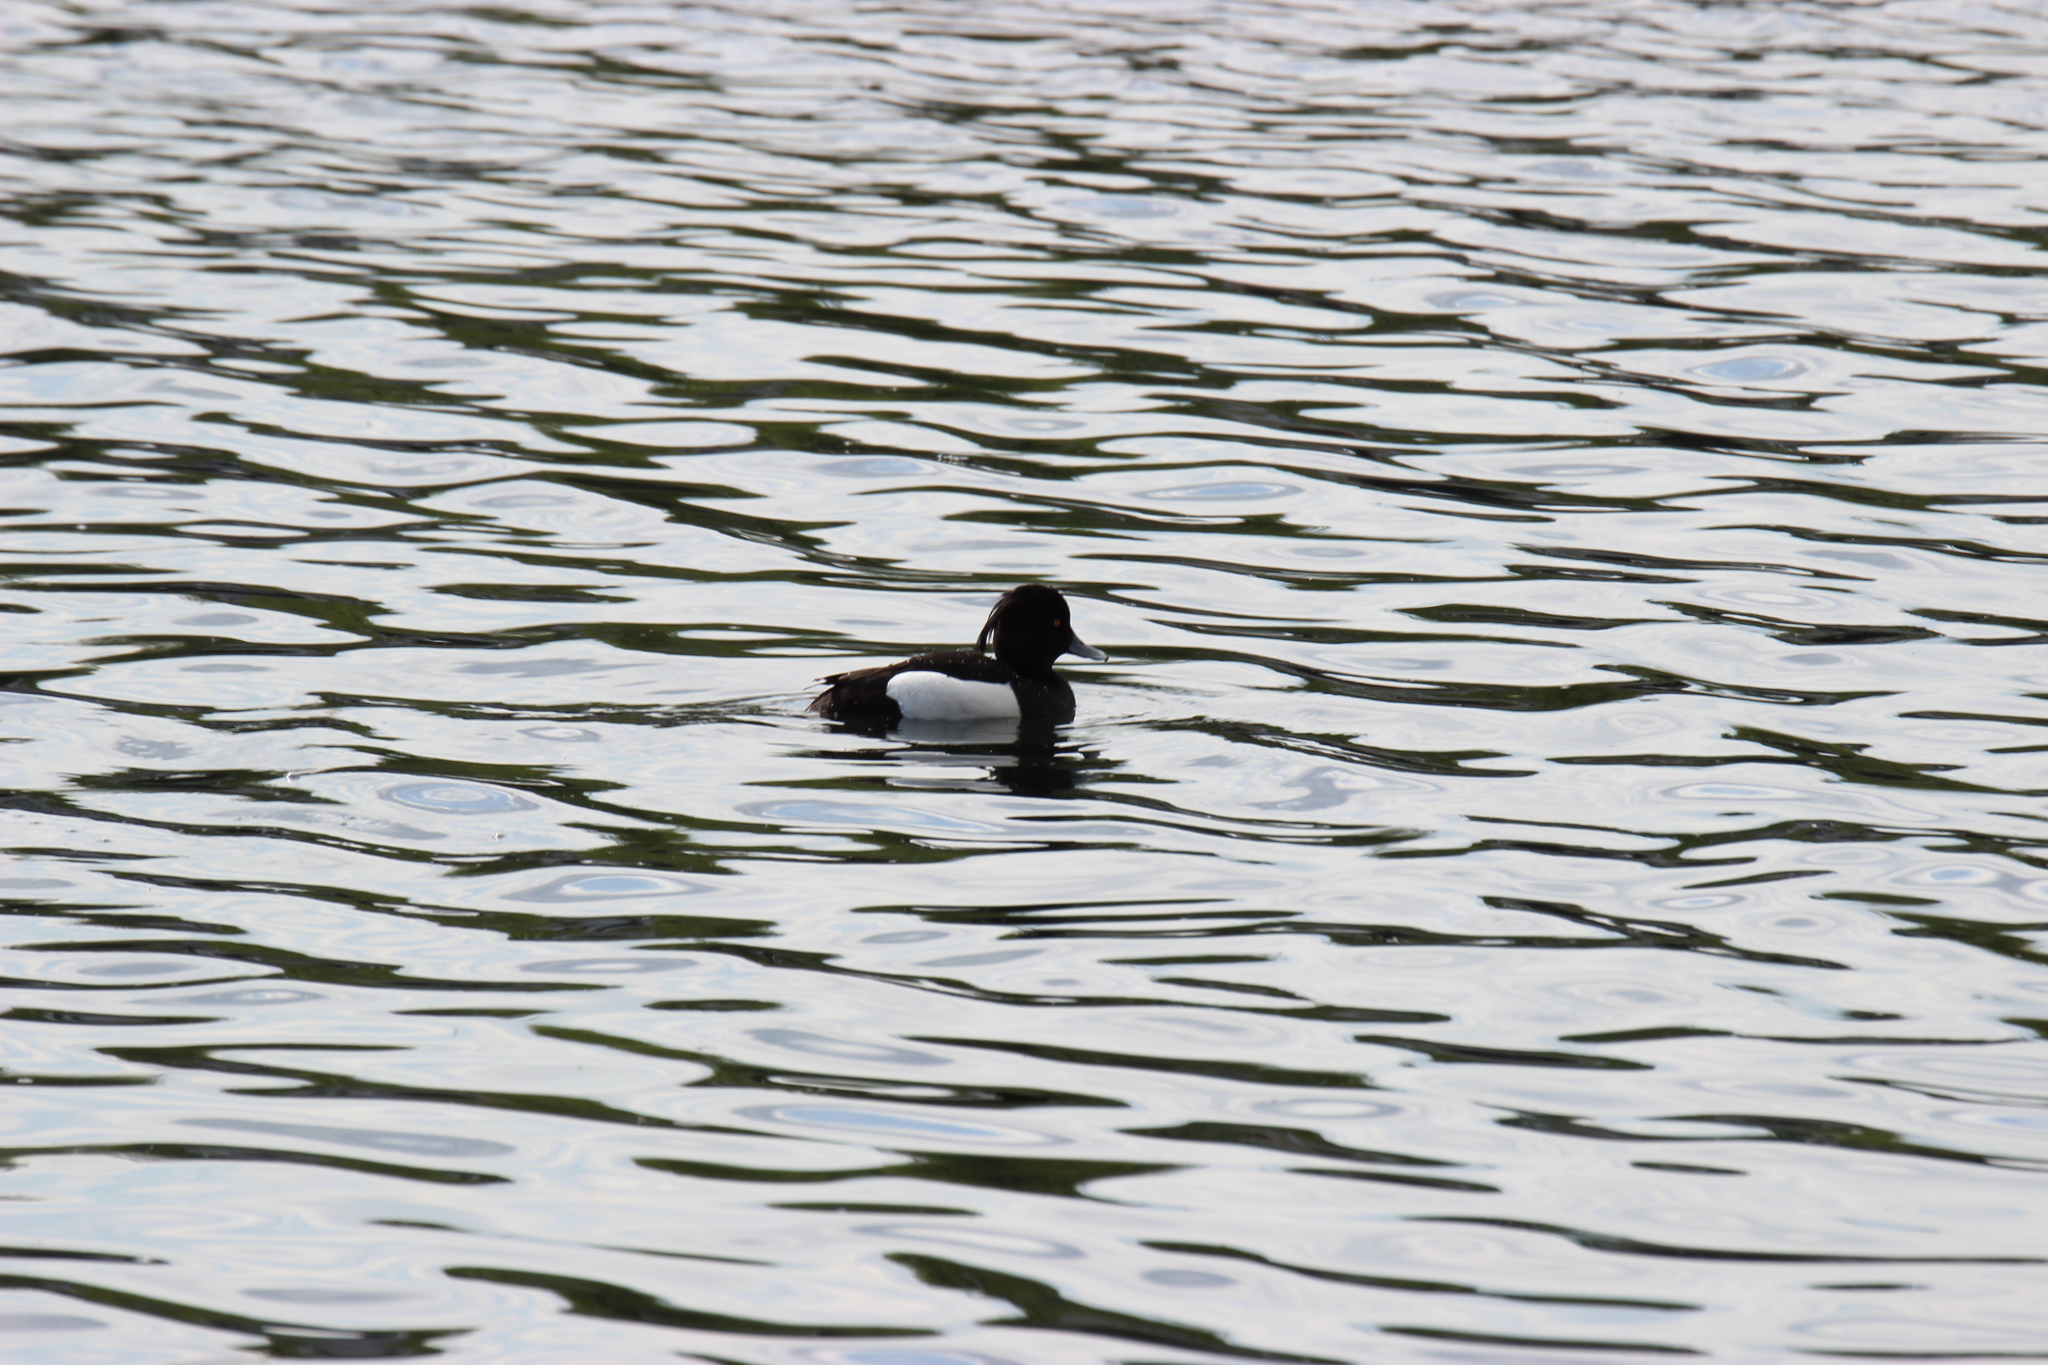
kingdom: Animalia
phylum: Chordata
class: Aves
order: Anseriformes
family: Anatidae
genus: Aythya
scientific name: Aythya fuligula
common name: Tufted duck
